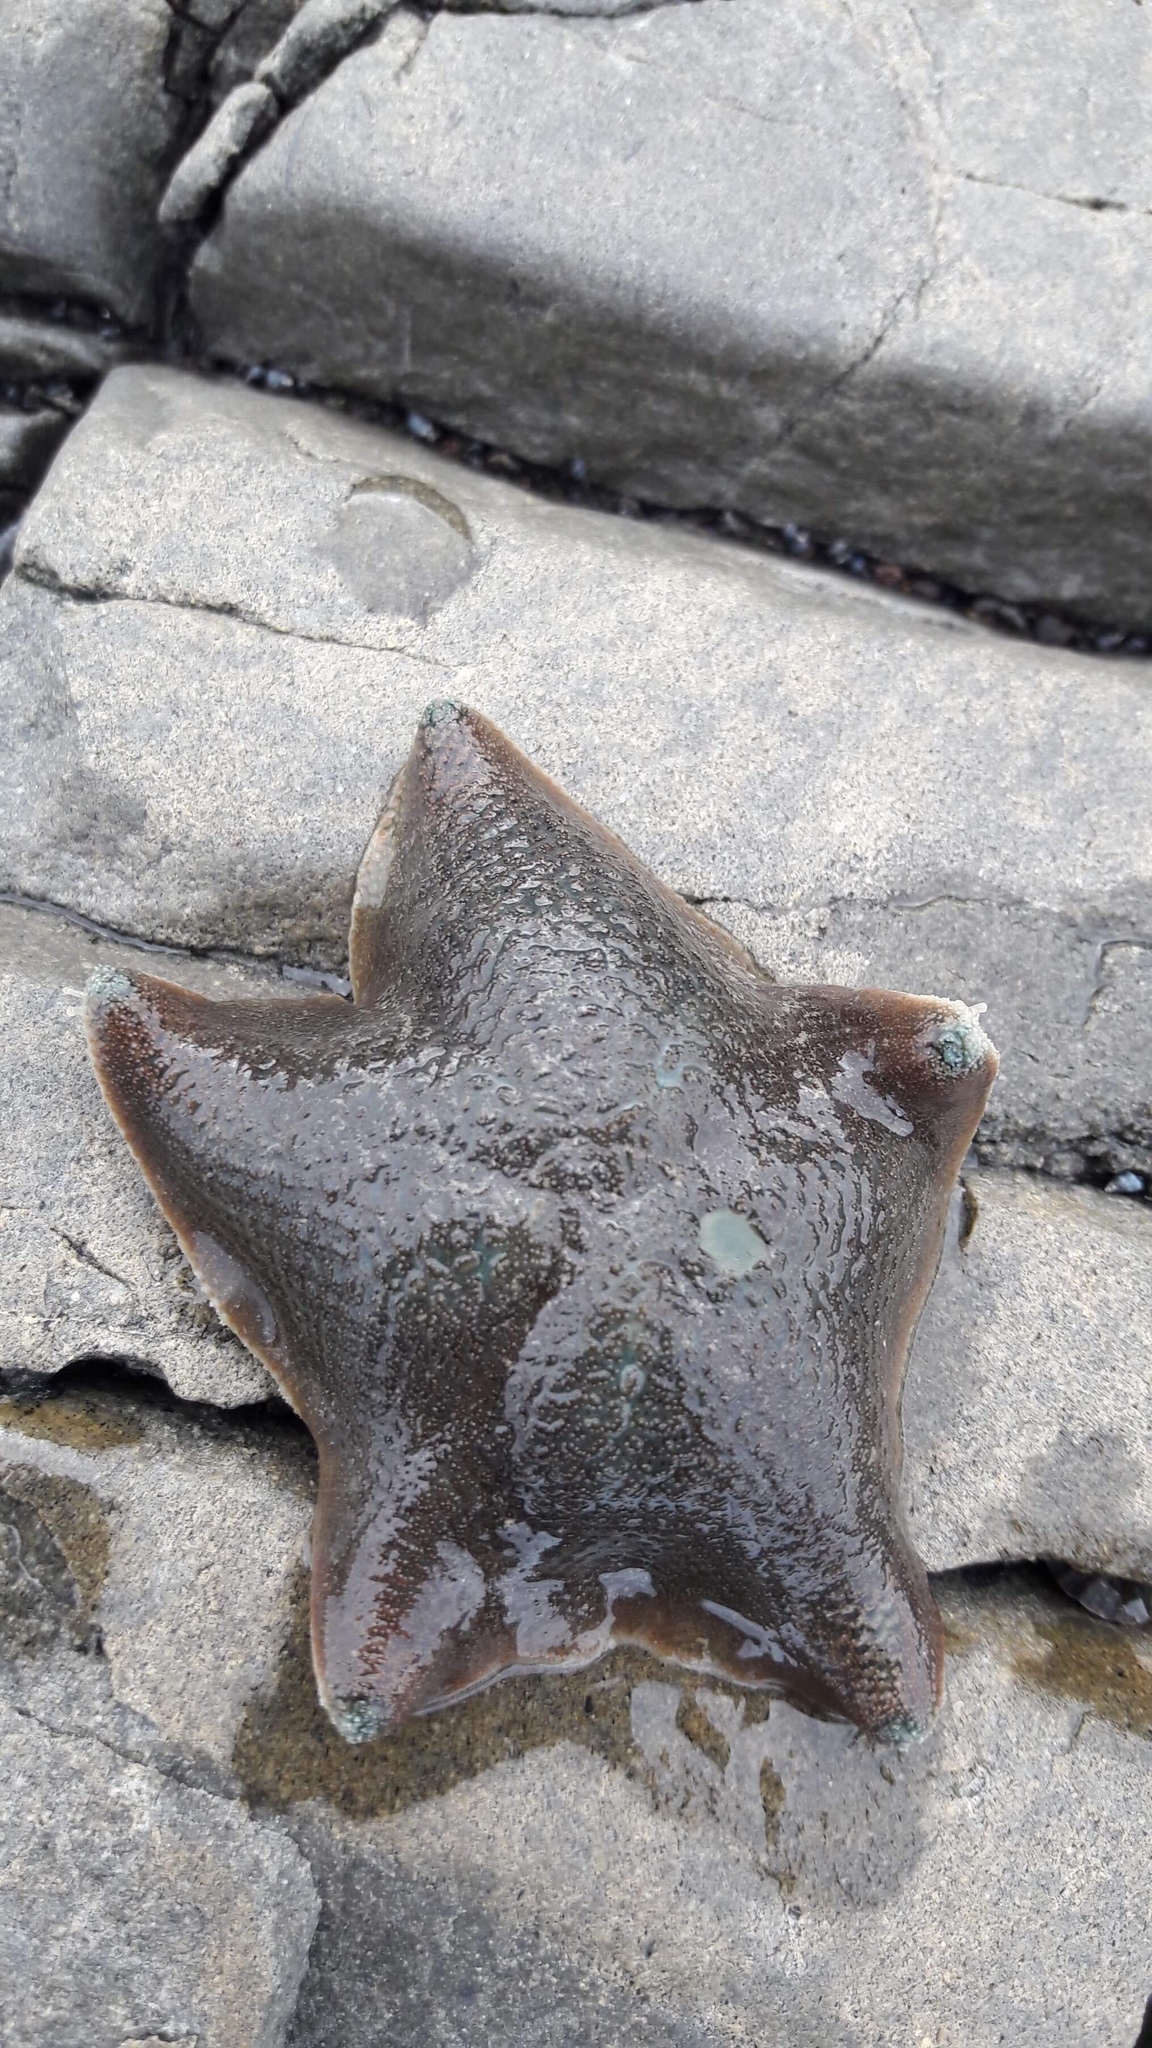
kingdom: Animalia
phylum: Echinodermata
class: Asteroidea
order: Valvatida
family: Asterinidae
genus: Patiriella
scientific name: Patiriella regularis
